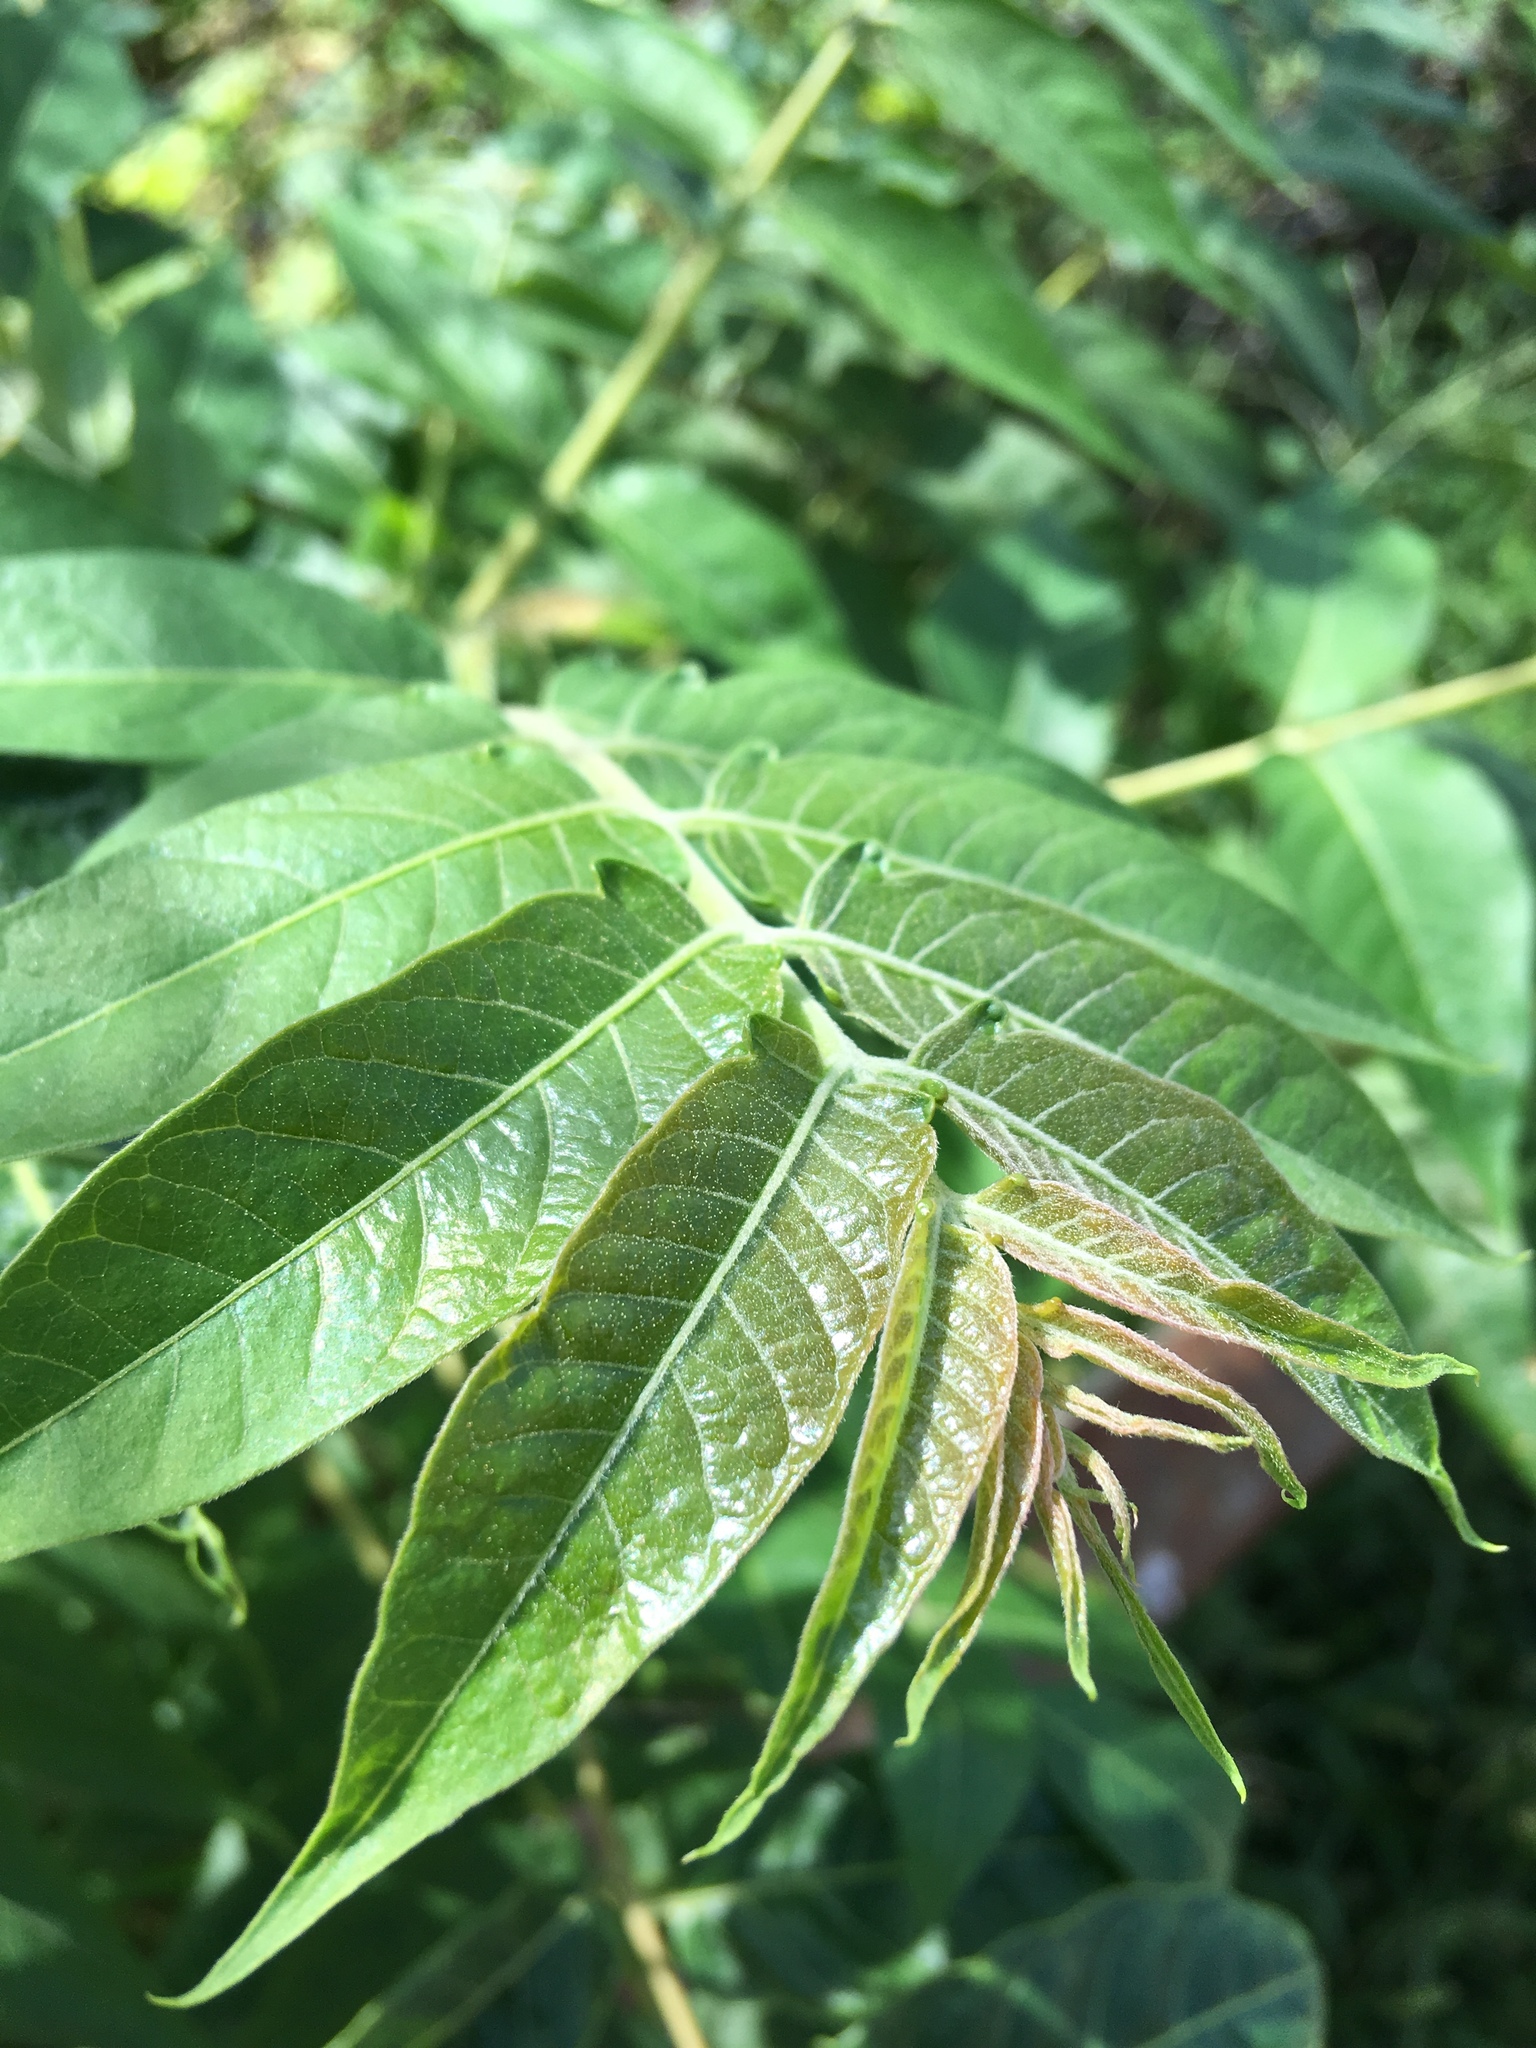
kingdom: Plantae
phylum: Tracheophyta
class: Magnoliopsida
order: Sapindales
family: Simaroubaceae
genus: Ailanthus
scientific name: Ailanthus altissima
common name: Tree-of-heaven
